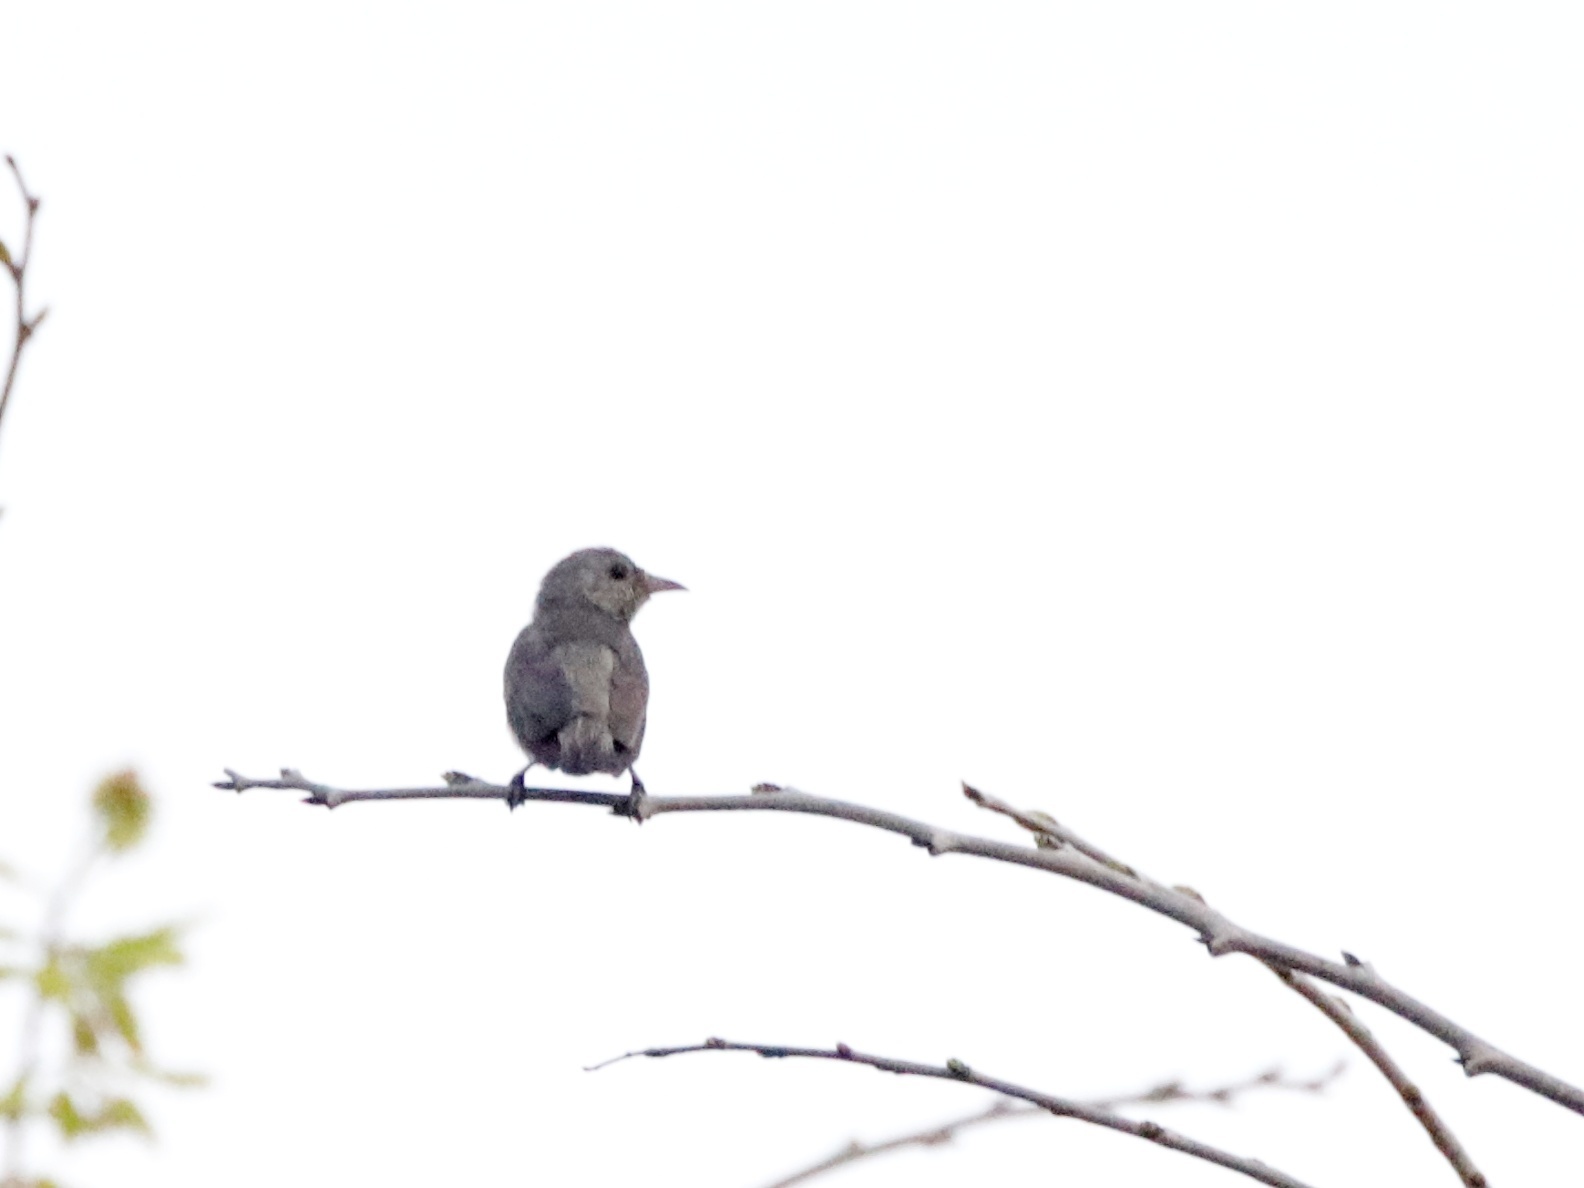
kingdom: Animalia
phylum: Chordata
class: Aves
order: Passeriformes
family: Dicaeidae
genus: Dicaeum
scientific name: Dicaeum erythrorhynchos
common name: Pale-billed flowerpecker
